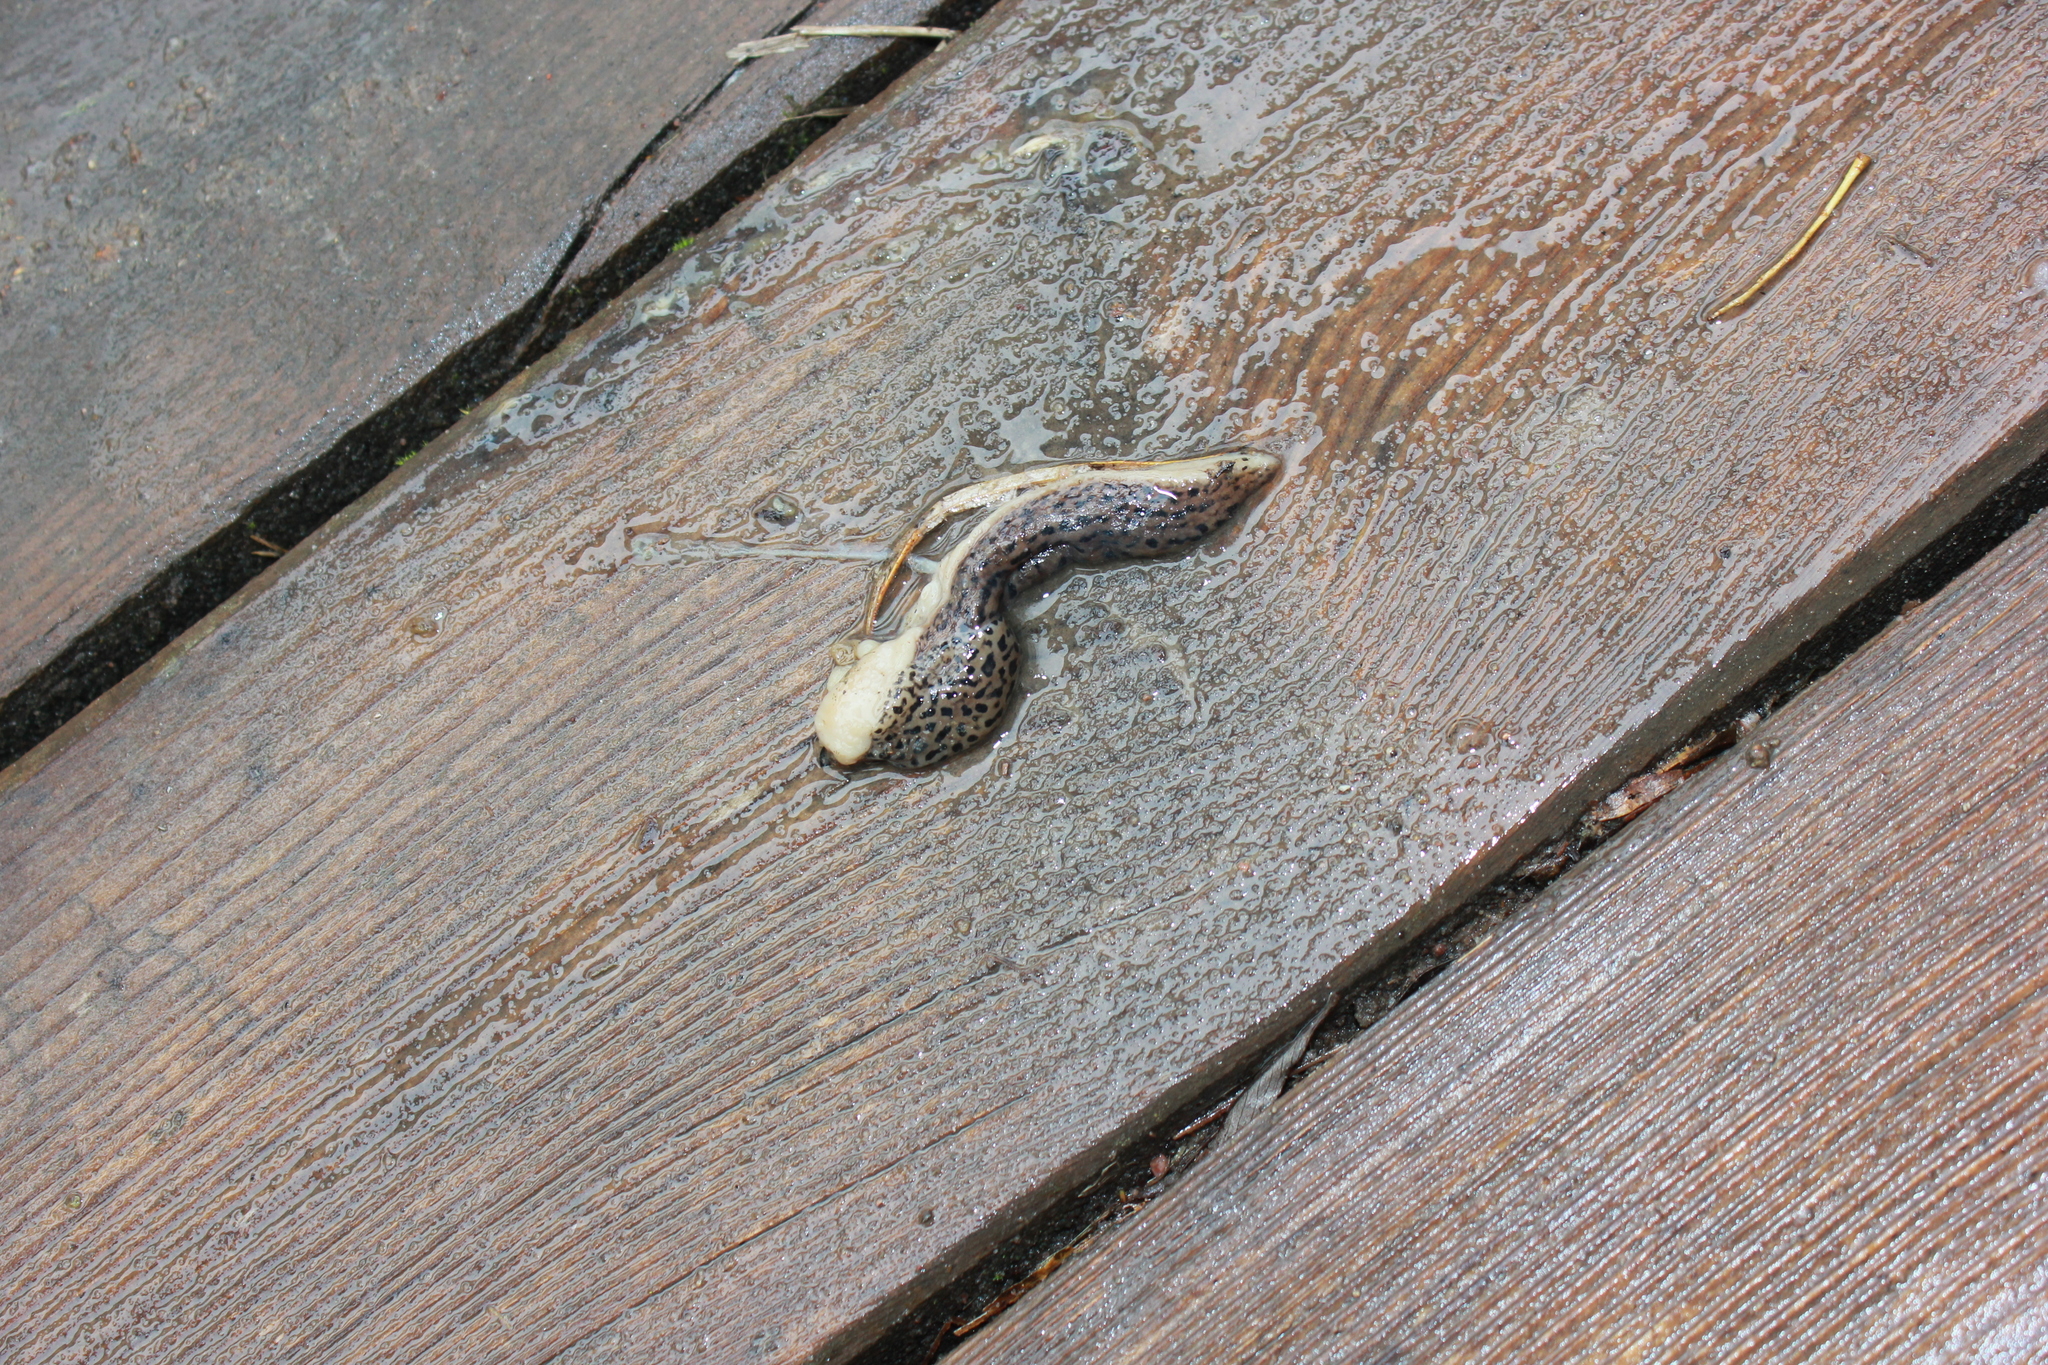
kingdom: Animalia
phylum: Mollusca
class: Gastropoda
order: Stylommatophora
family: Limacidae
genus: Limax
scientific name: Limax maximus
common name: Great grey slug
